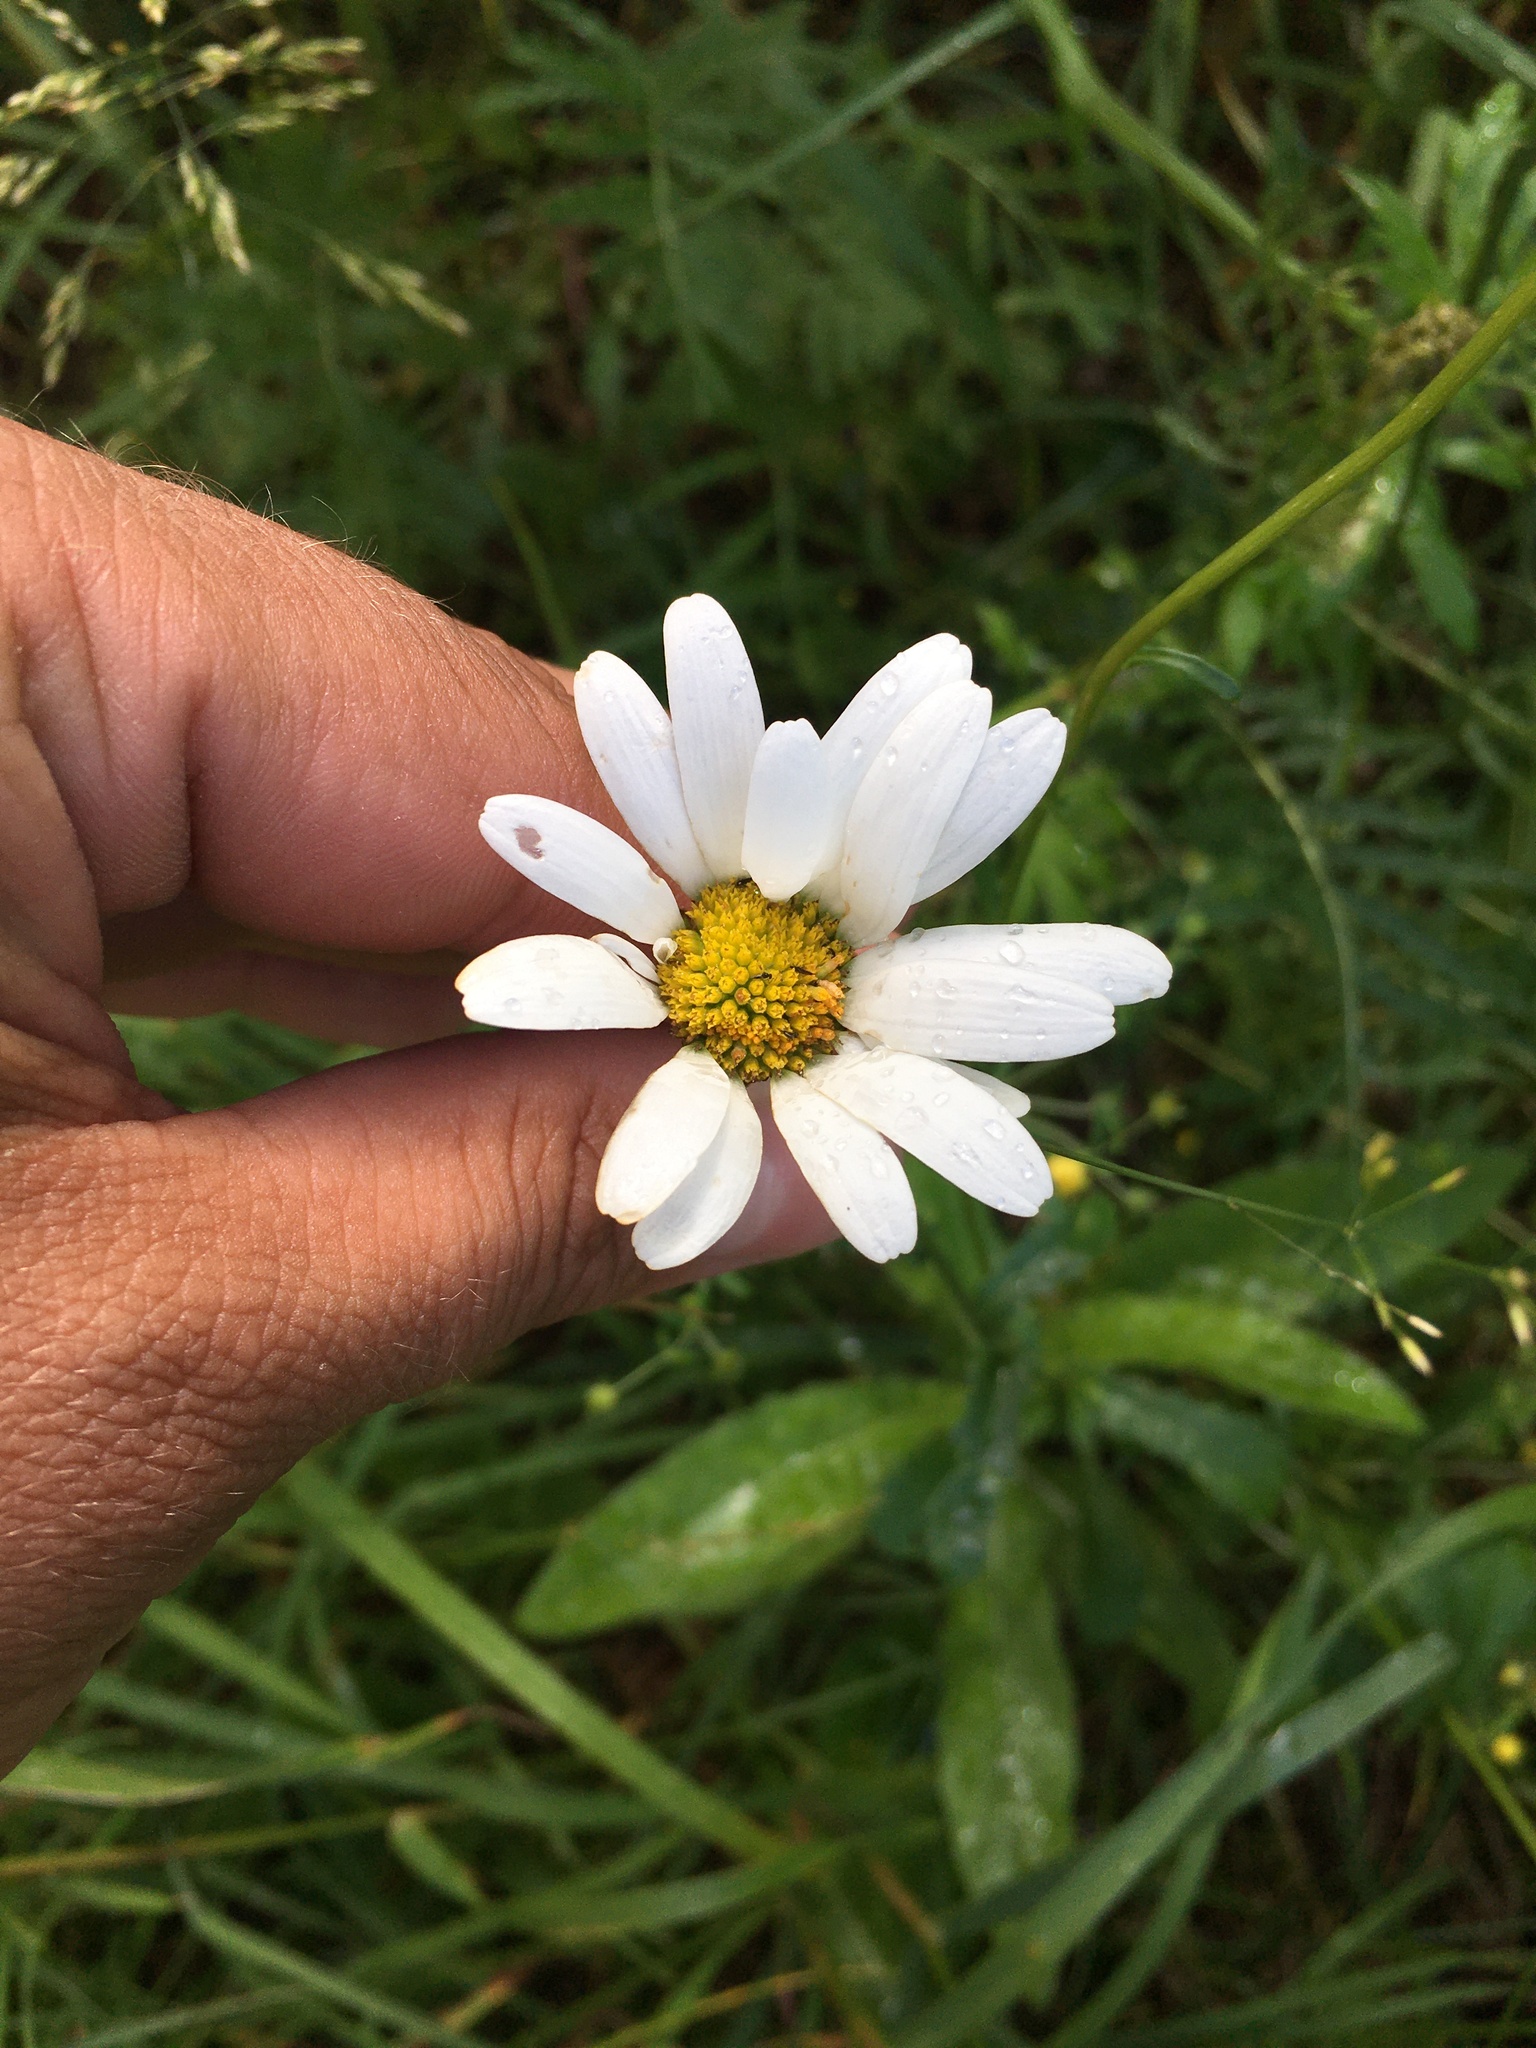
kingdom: Plantae
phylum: Tracheophyta
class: Magnoliopsida
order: Asterales
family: Asteraceae
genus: Leucanthemum
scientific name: Leucanthemum vulgare
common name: Oxeye daisy
